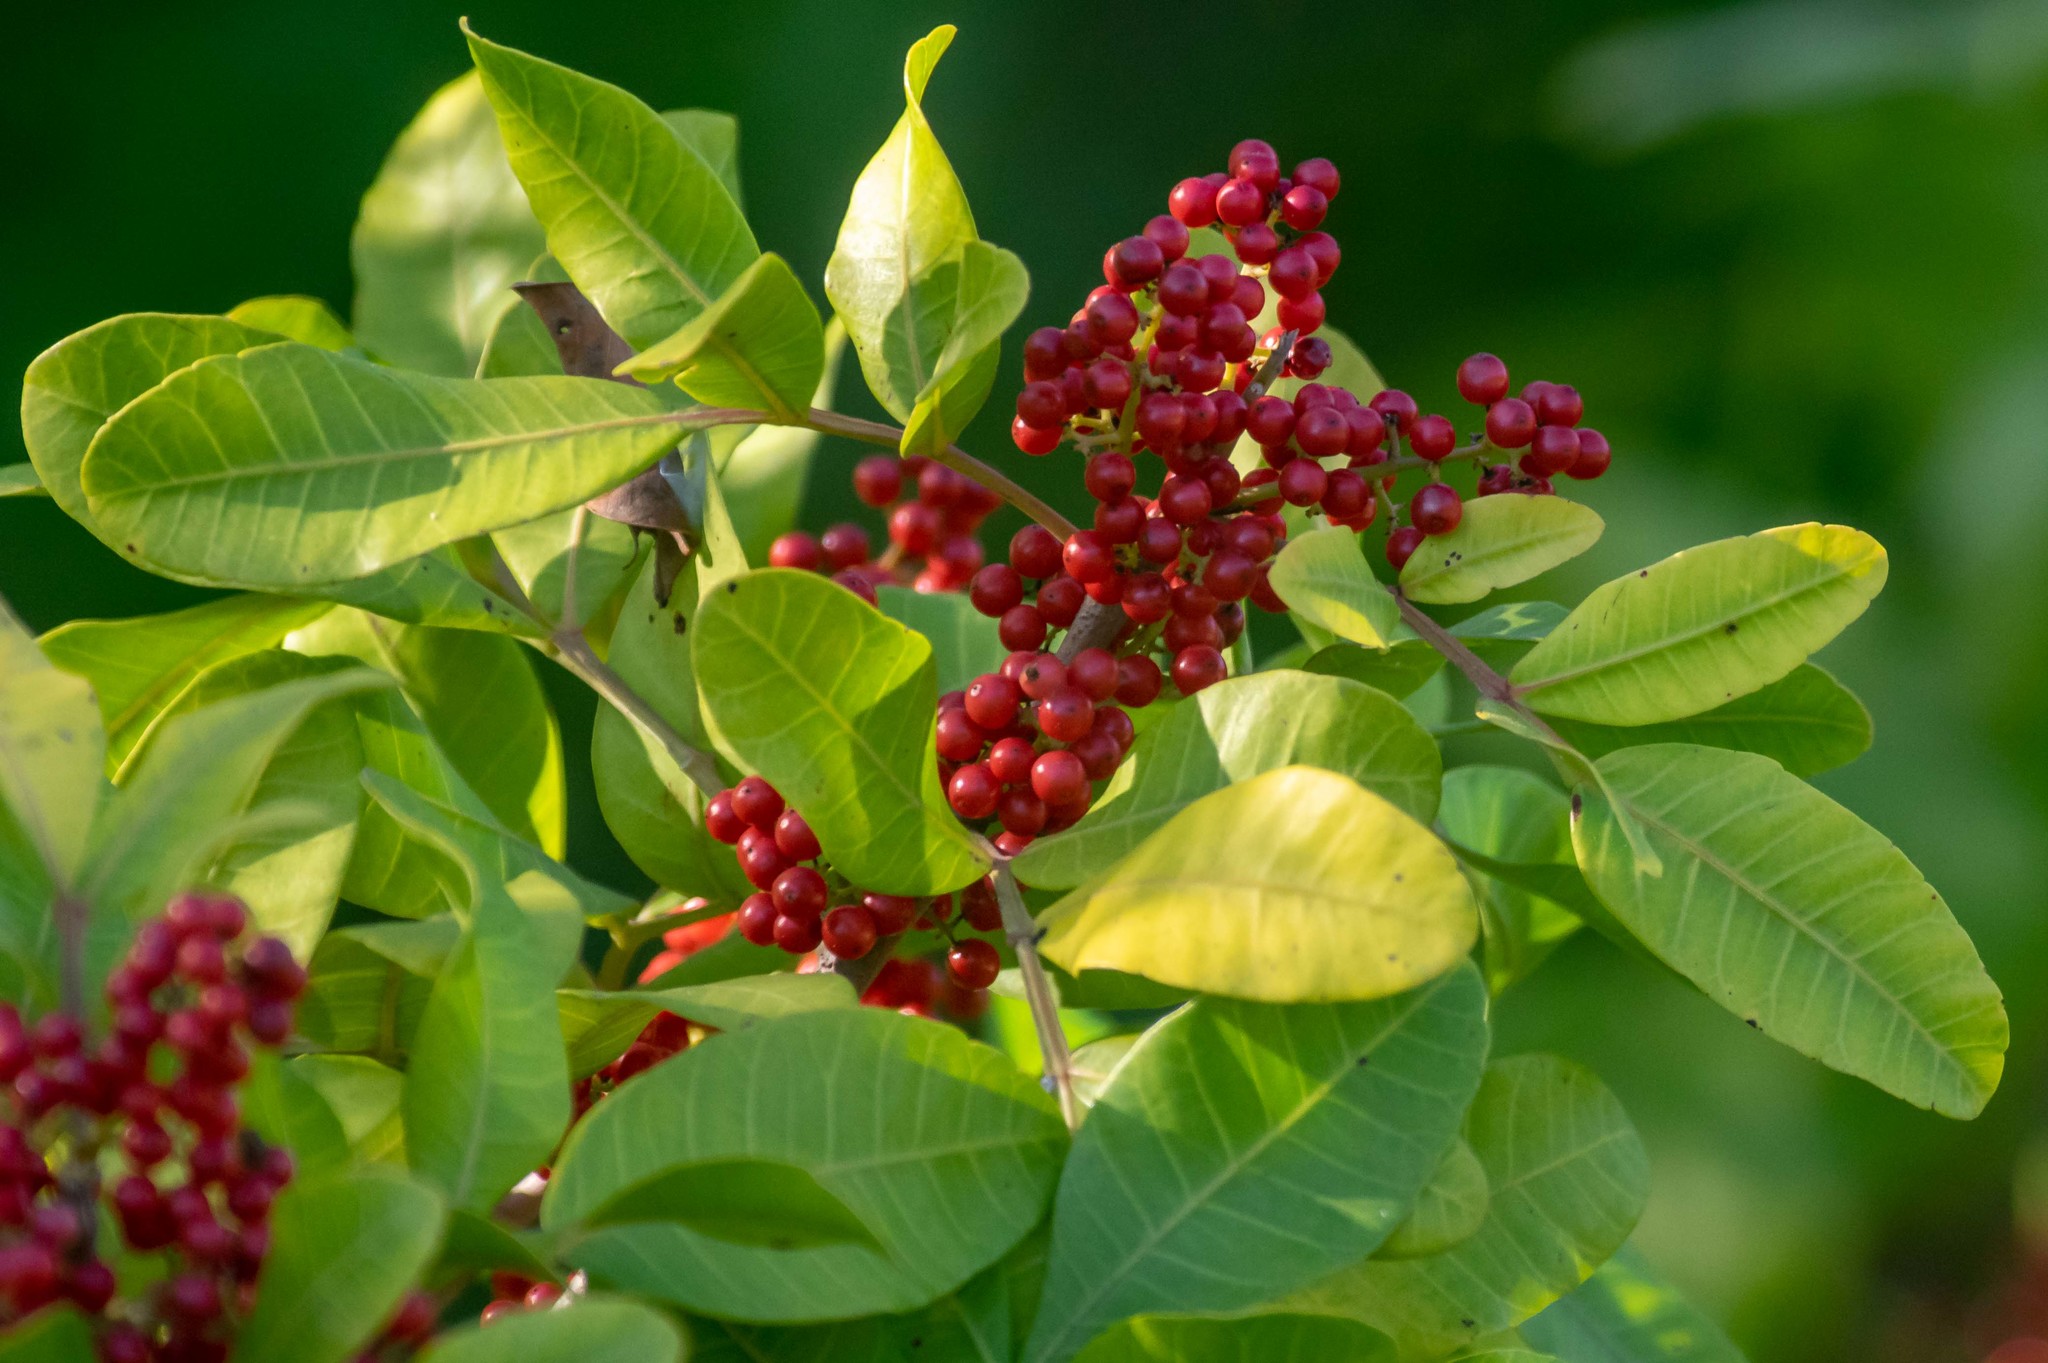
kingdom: Plantae
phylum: Tracheophyta
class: Magnoliopsida
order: Sapindales
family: Anacardiaceae
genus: Schinus
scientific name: Schinus terebinthifolia
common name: Brazilian peppertree
